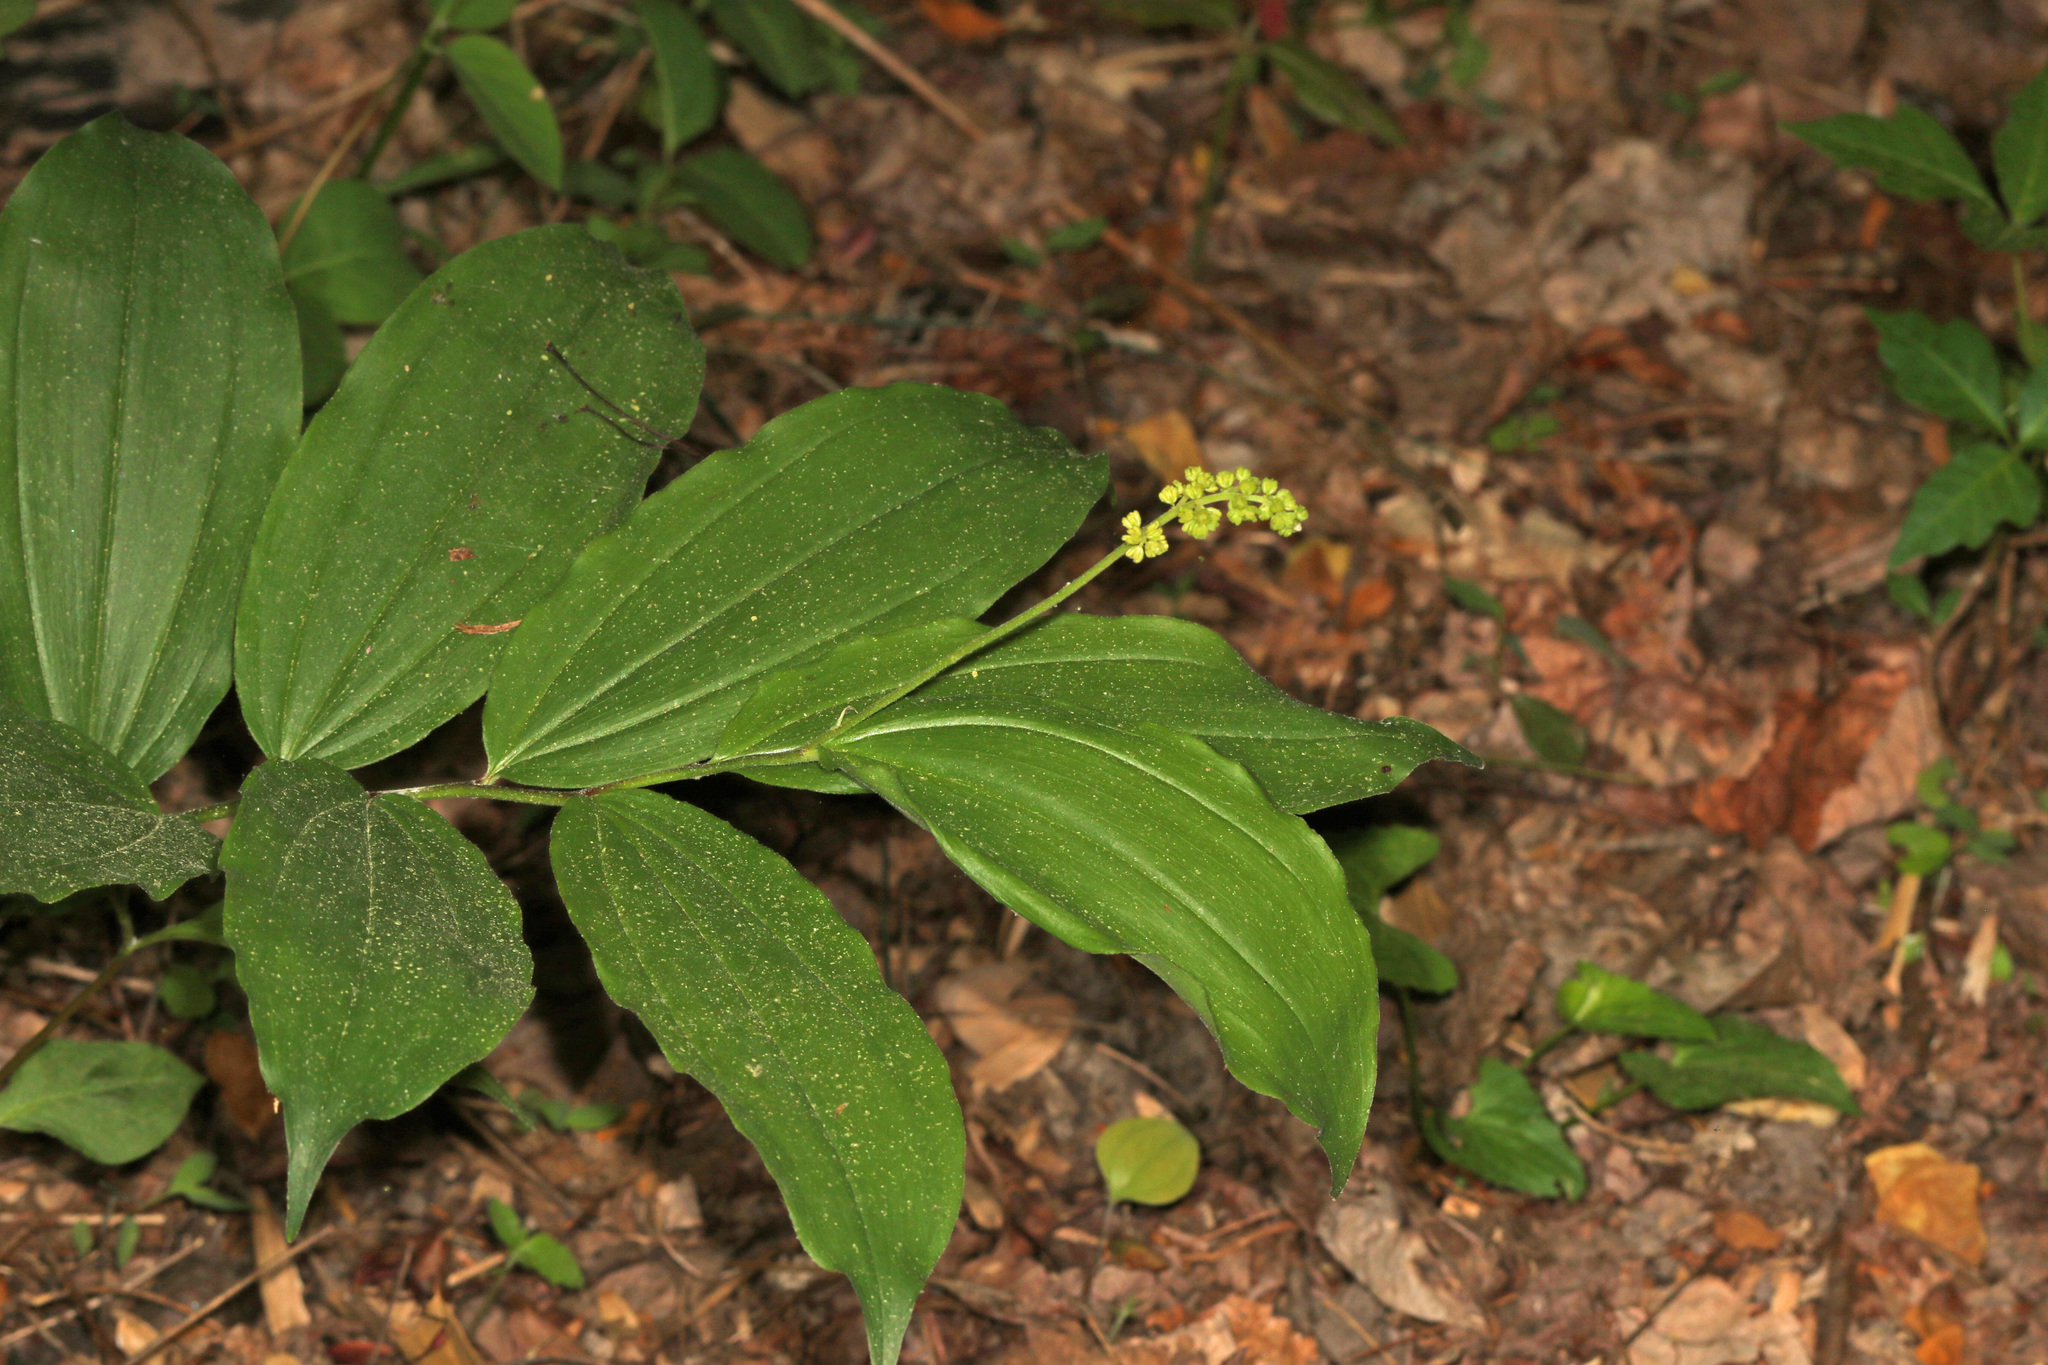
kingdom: Plantae
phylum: Tracheophyta
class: Liliopsida
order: Asparagales
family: Asparagaceae
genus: Maianthemum
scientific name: Maianthemum racemosum
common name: False spikenard
